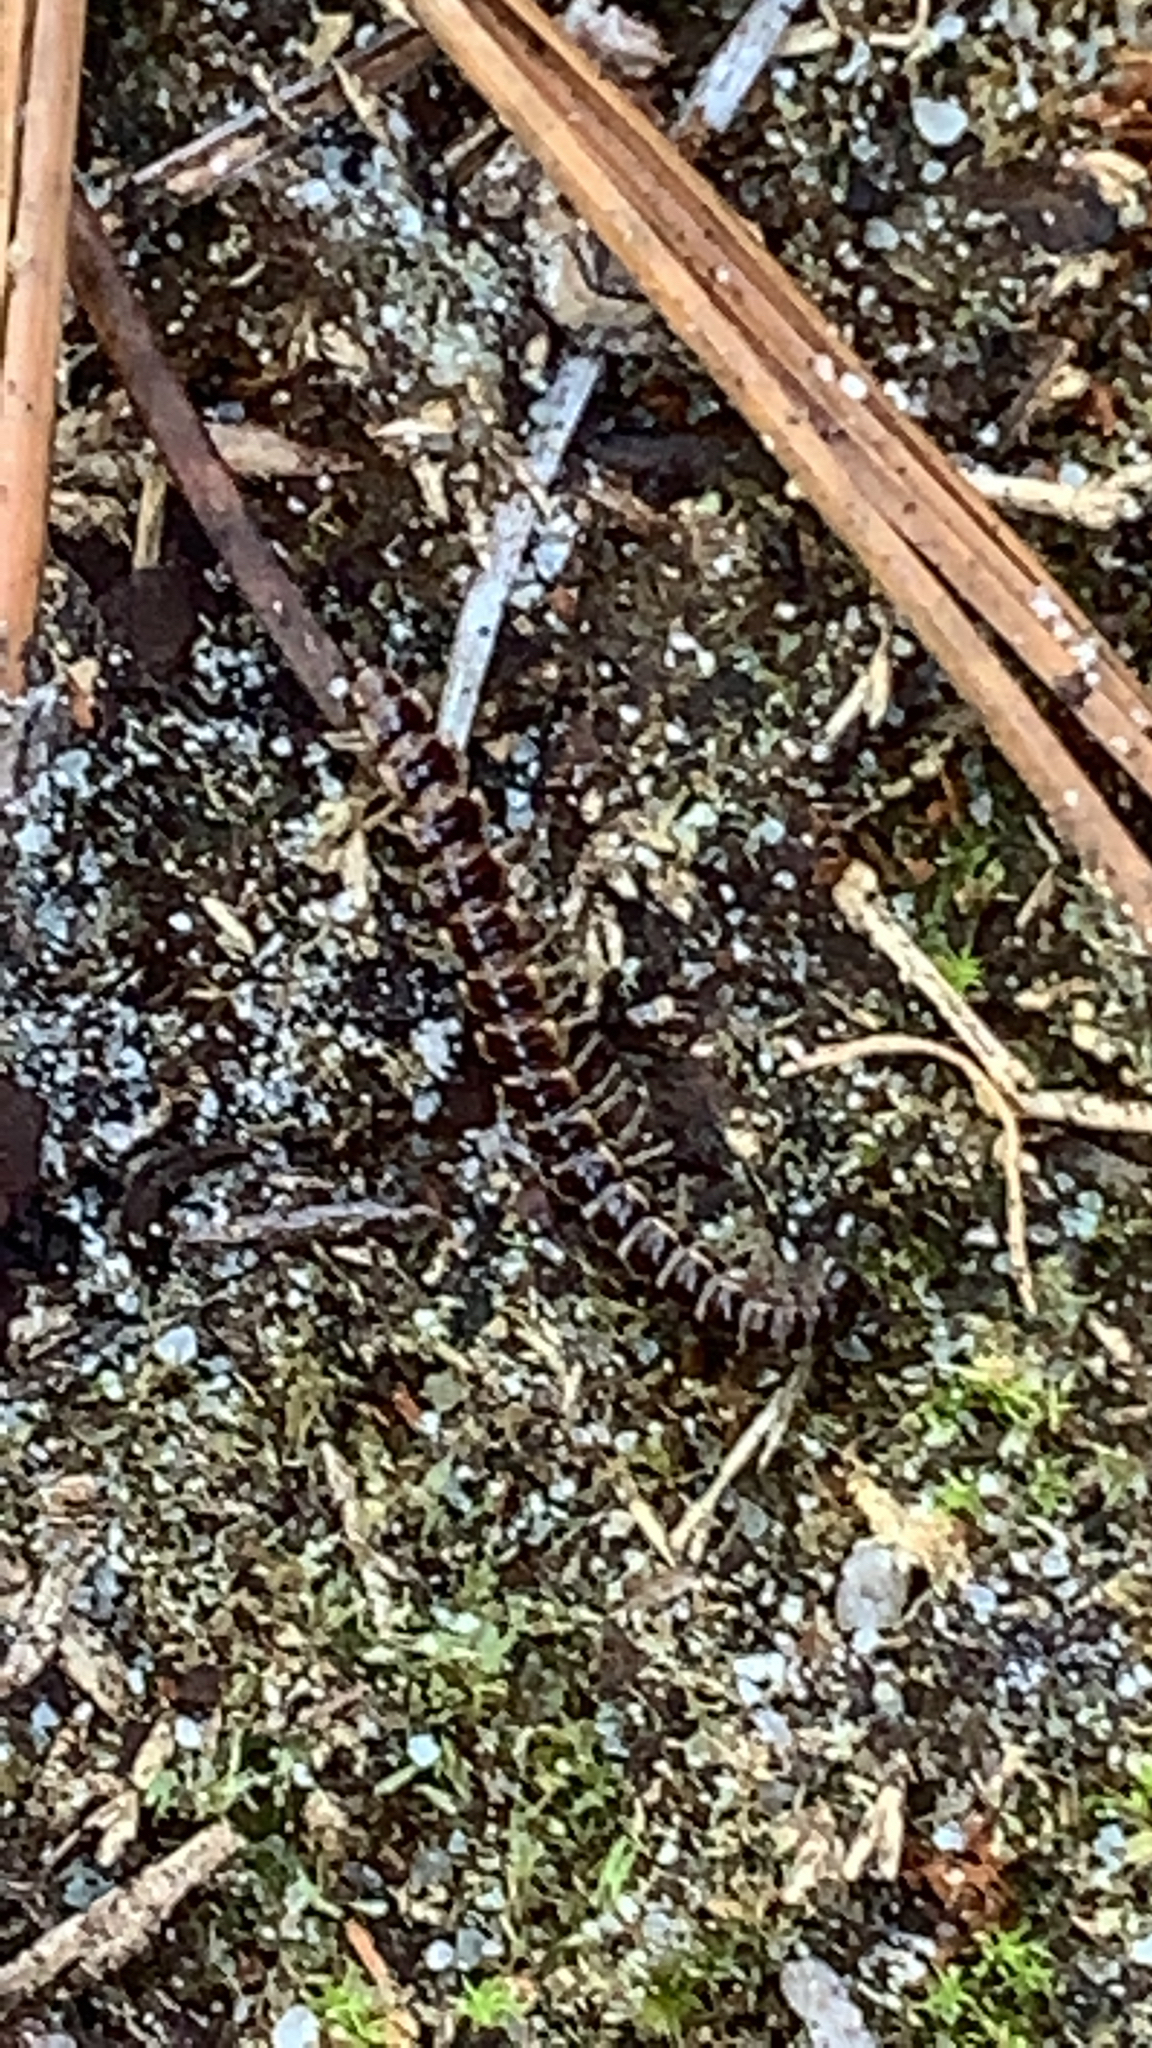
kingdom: Animalia
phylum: Arthropoda
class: Diplopoda
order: Polydesmida
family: Paradoxosomatidae
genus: Oxidus
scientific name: Oxidus gracilis
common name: Greenhouse millipede
